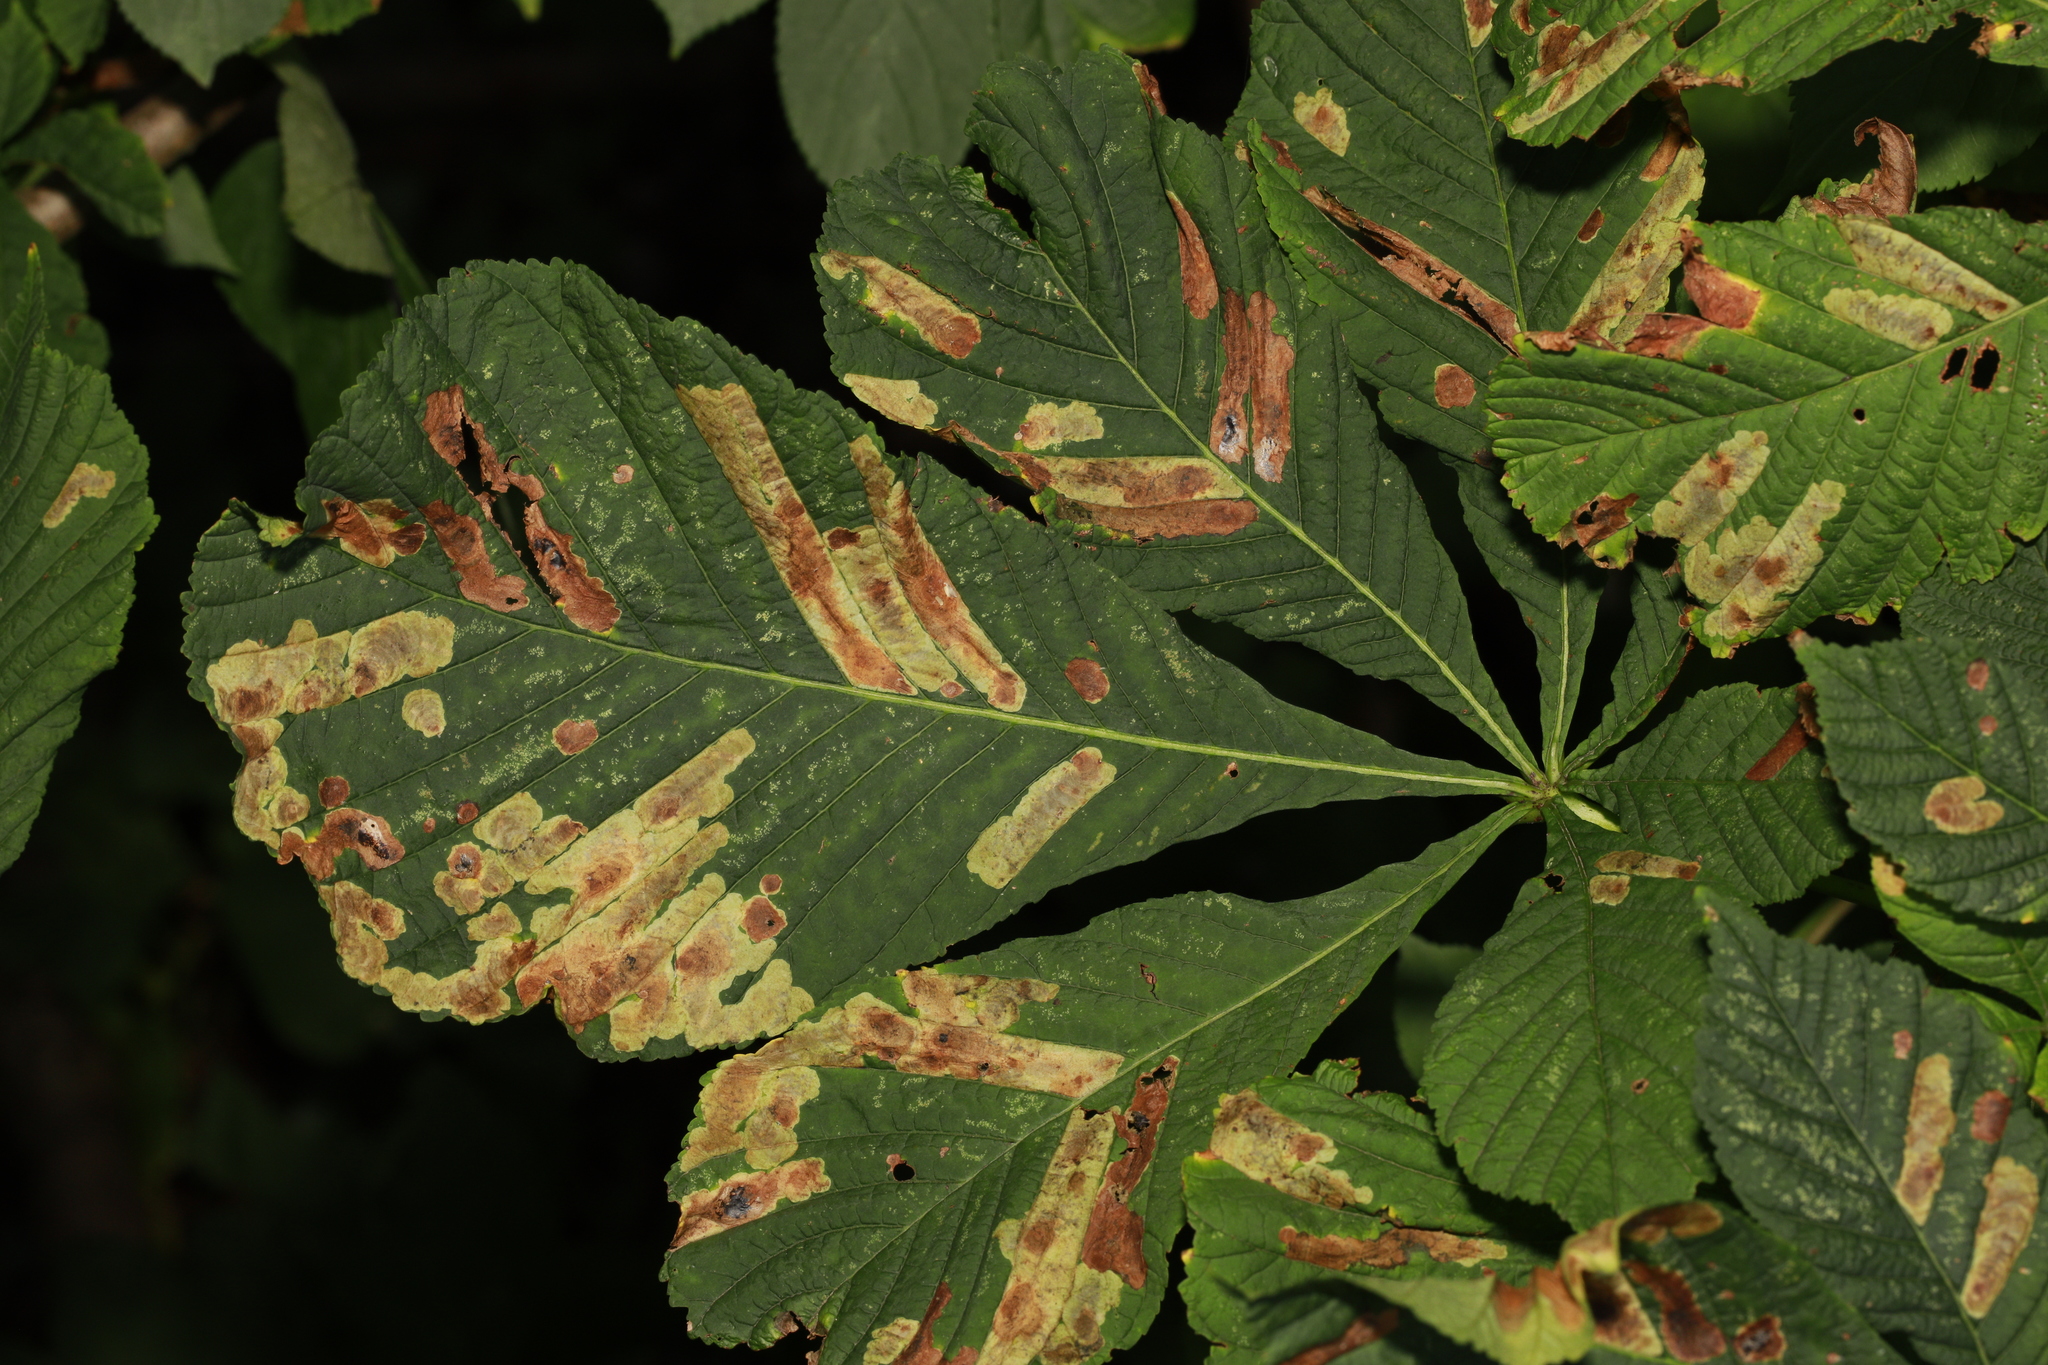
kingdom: Plantae
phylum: Tracheophyta
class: Magnoliopsida
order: Sapindales
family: Sapindaceae
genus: Aesculus
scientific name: Aesculus hippocastanum
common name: Horse-chestnut
